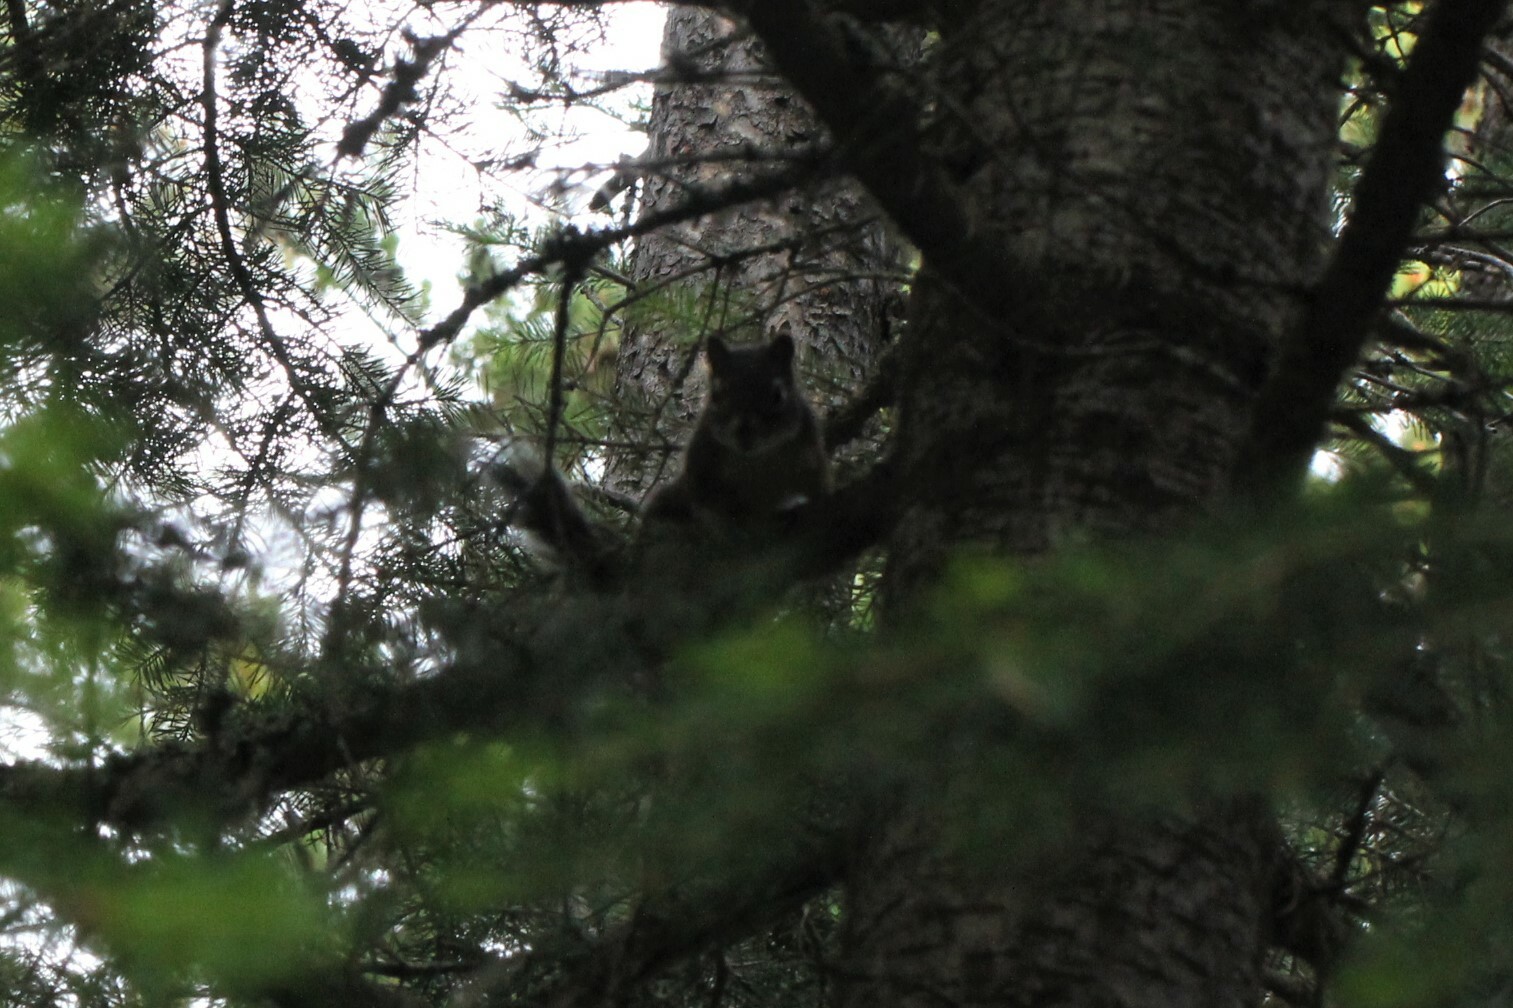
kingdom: Animalia
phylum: Chordata
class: Mammalia
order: Rodentia
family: Sciuridae
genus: Tamiasciurus
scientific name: Tamiasciurus hudsonicus
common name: Red squirrel
